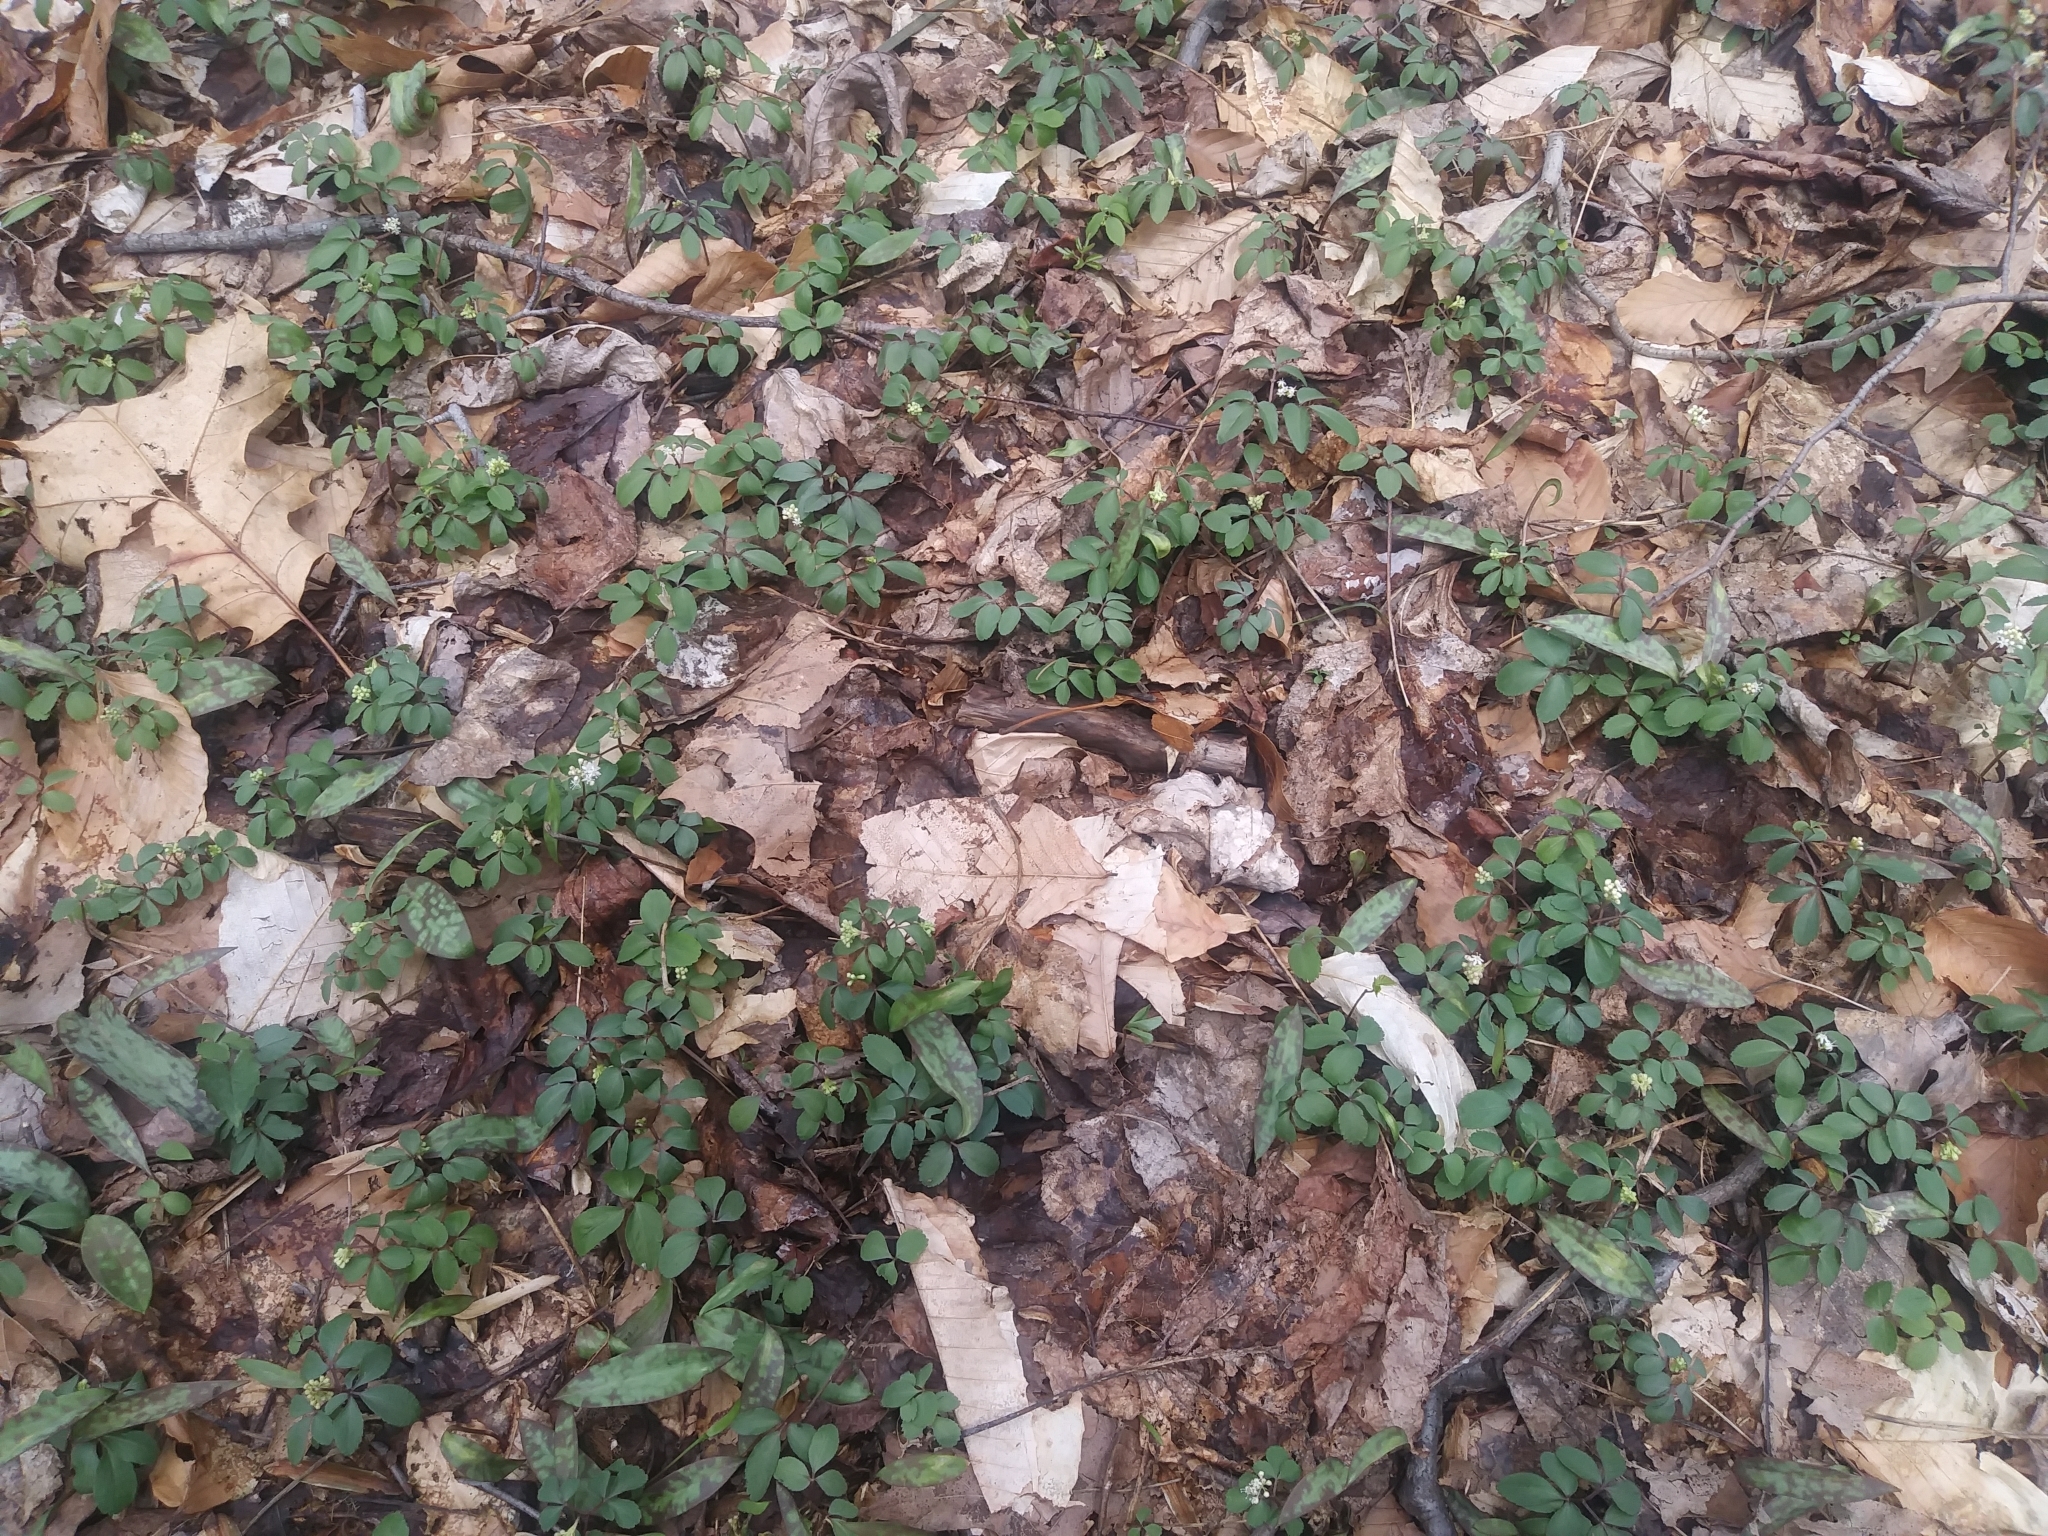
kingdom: Plantae
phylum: Tracheophyta
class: Magnoliopsida
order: Apiales
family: Araliaceae
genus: Panax
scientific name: Panax trifolius
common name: Dwarf ginseng
